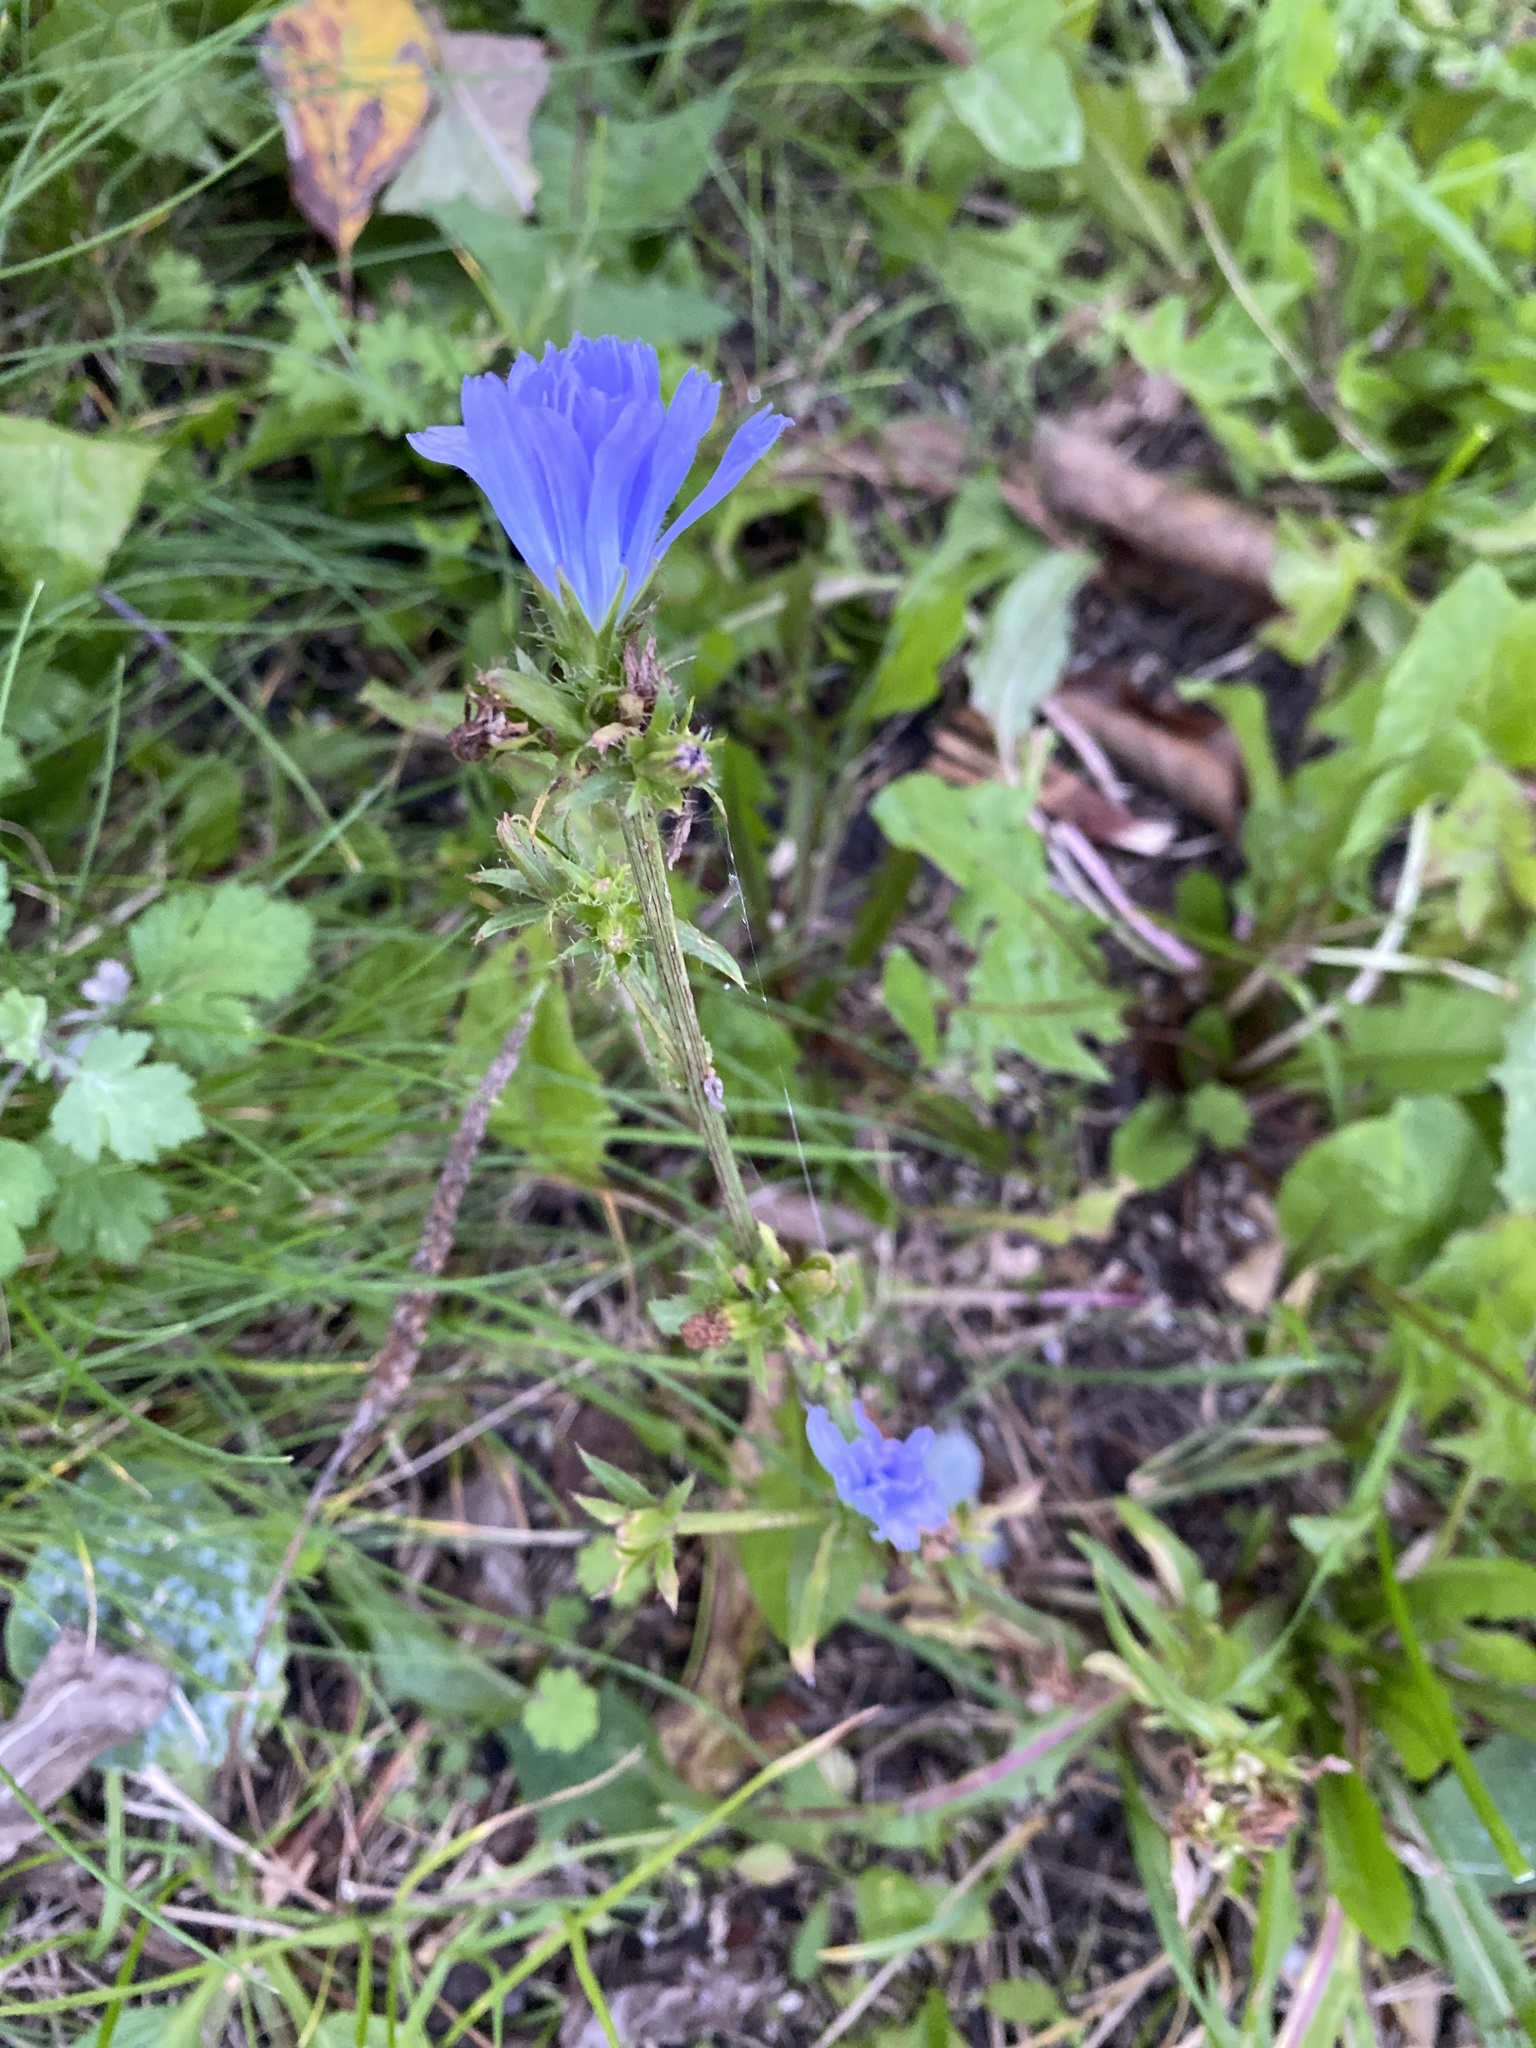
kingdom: Plantae
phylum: Tracheophyta
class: Magnoliopsida
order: Asterales
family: Asteraceae
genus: Cichorium
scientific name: Cichorium intybus
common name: Chicory
